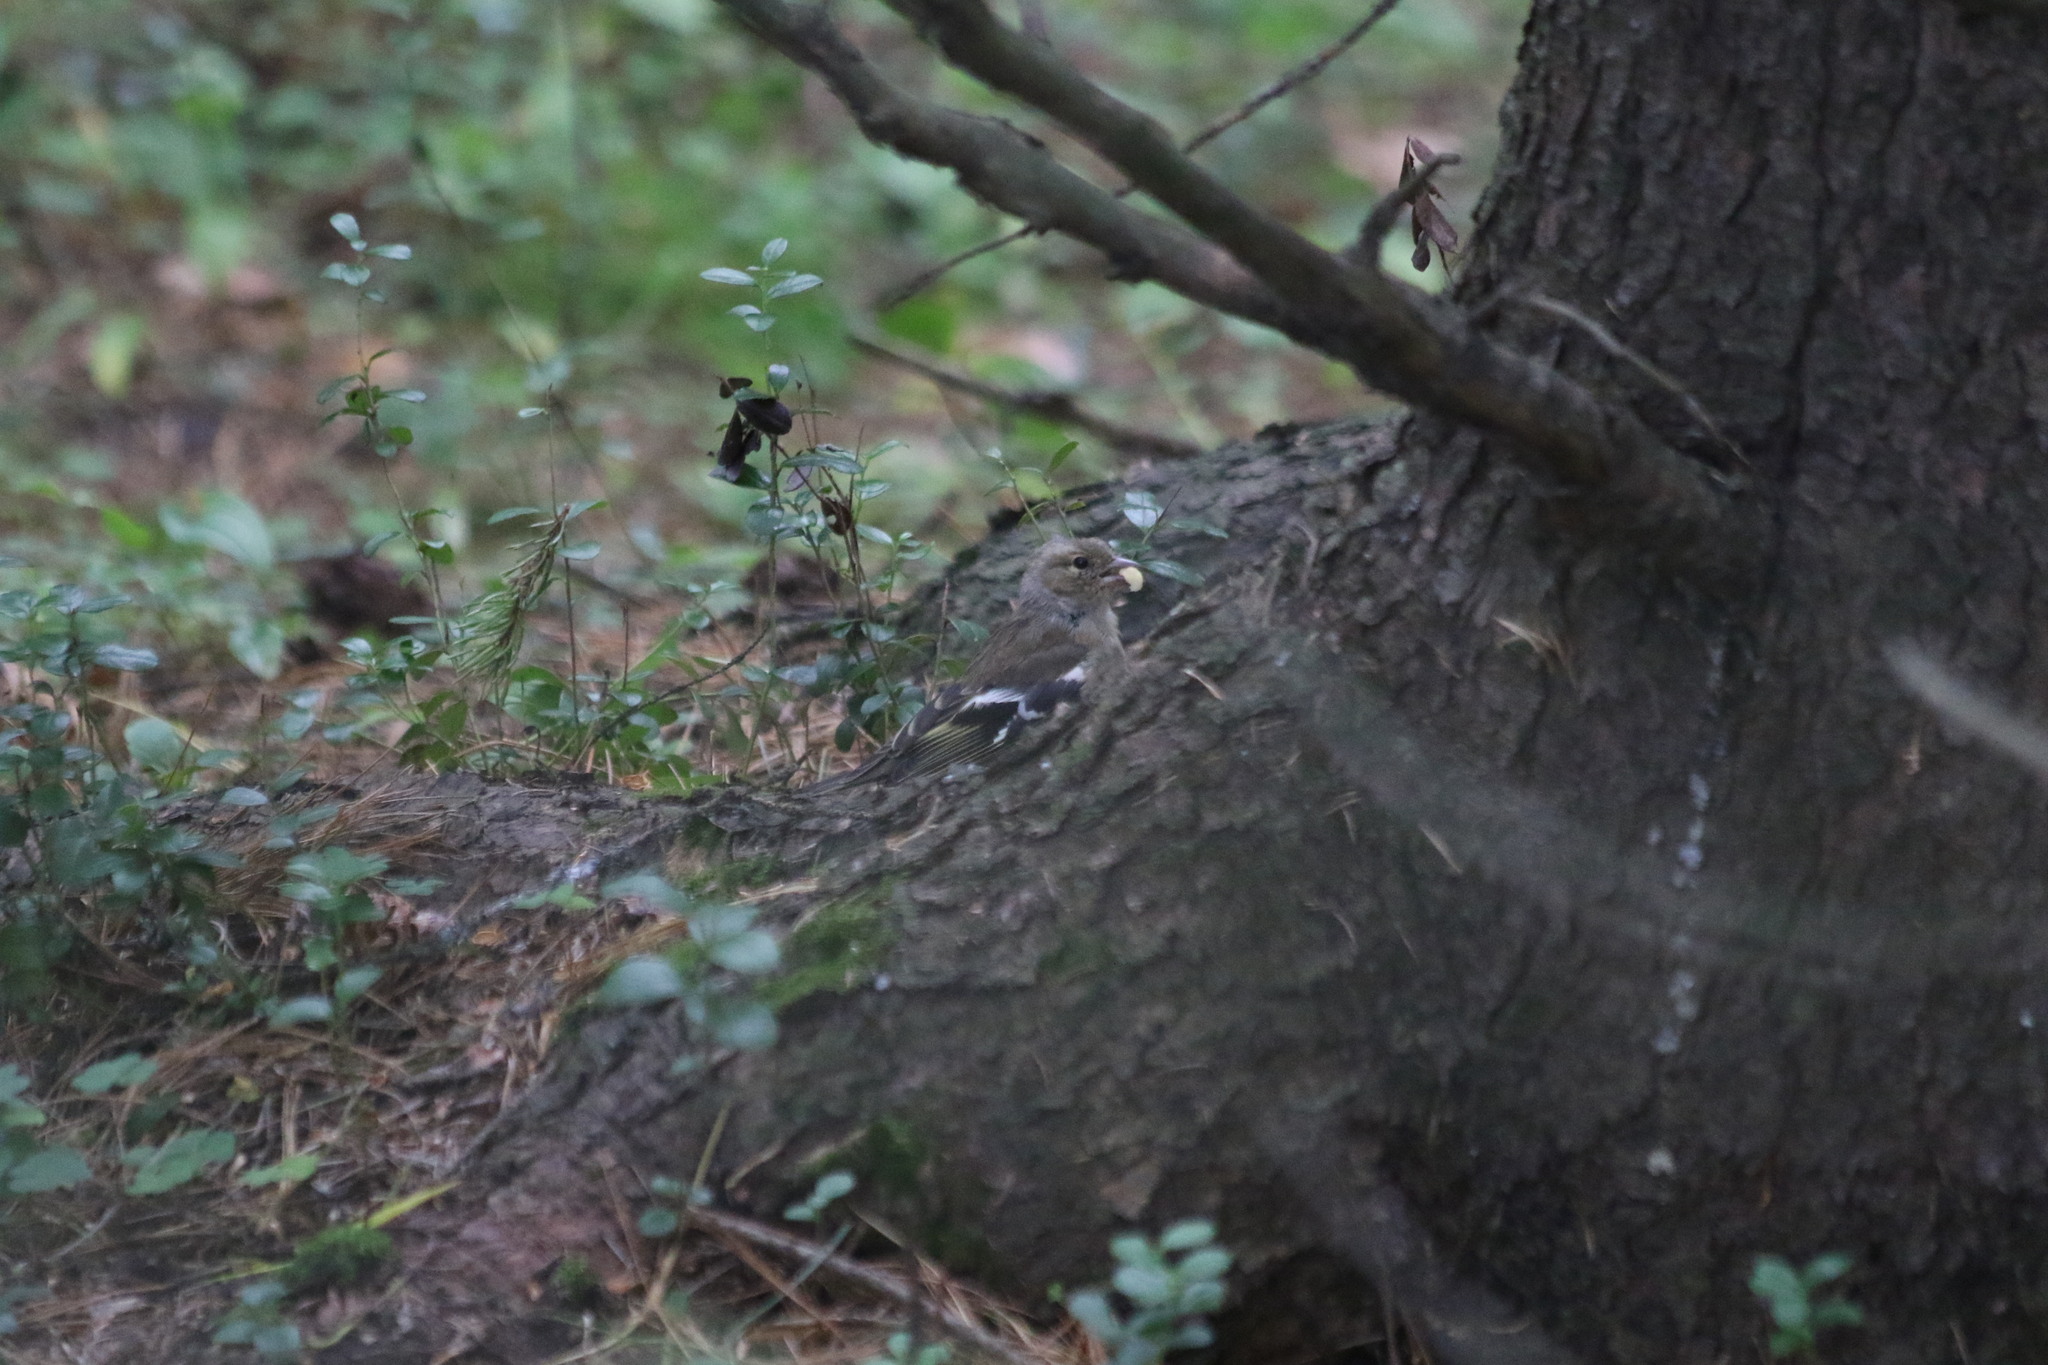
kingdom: Animalia
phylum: Chordata
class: Aves
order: Passeriformes
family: Fringillidae
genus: Fringilla
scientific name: Fringilla coelebs
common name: Common chaffinch
